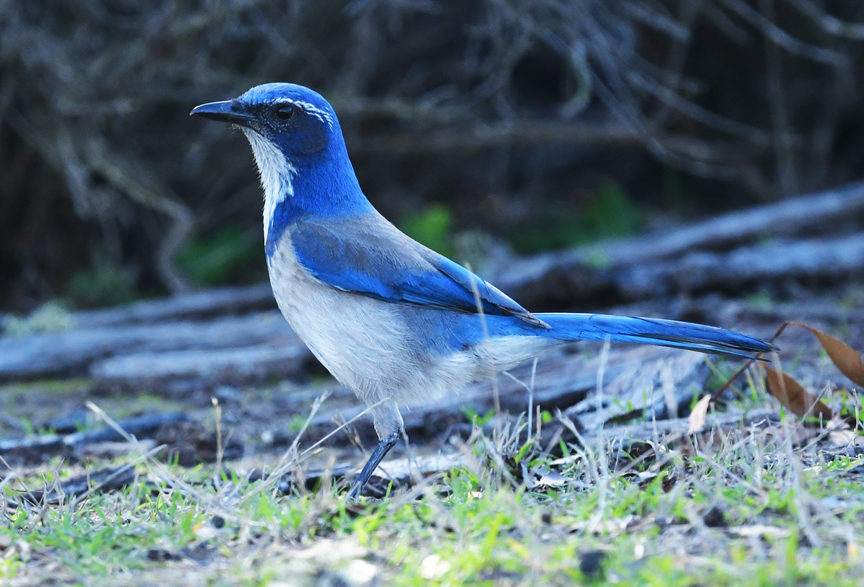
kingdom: Animalia
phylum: Chordata
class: Aves
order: Passeriformes
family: Corvidae
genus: Aphelocoma
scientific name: Aphelocoma californica
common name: California scrub-jay
